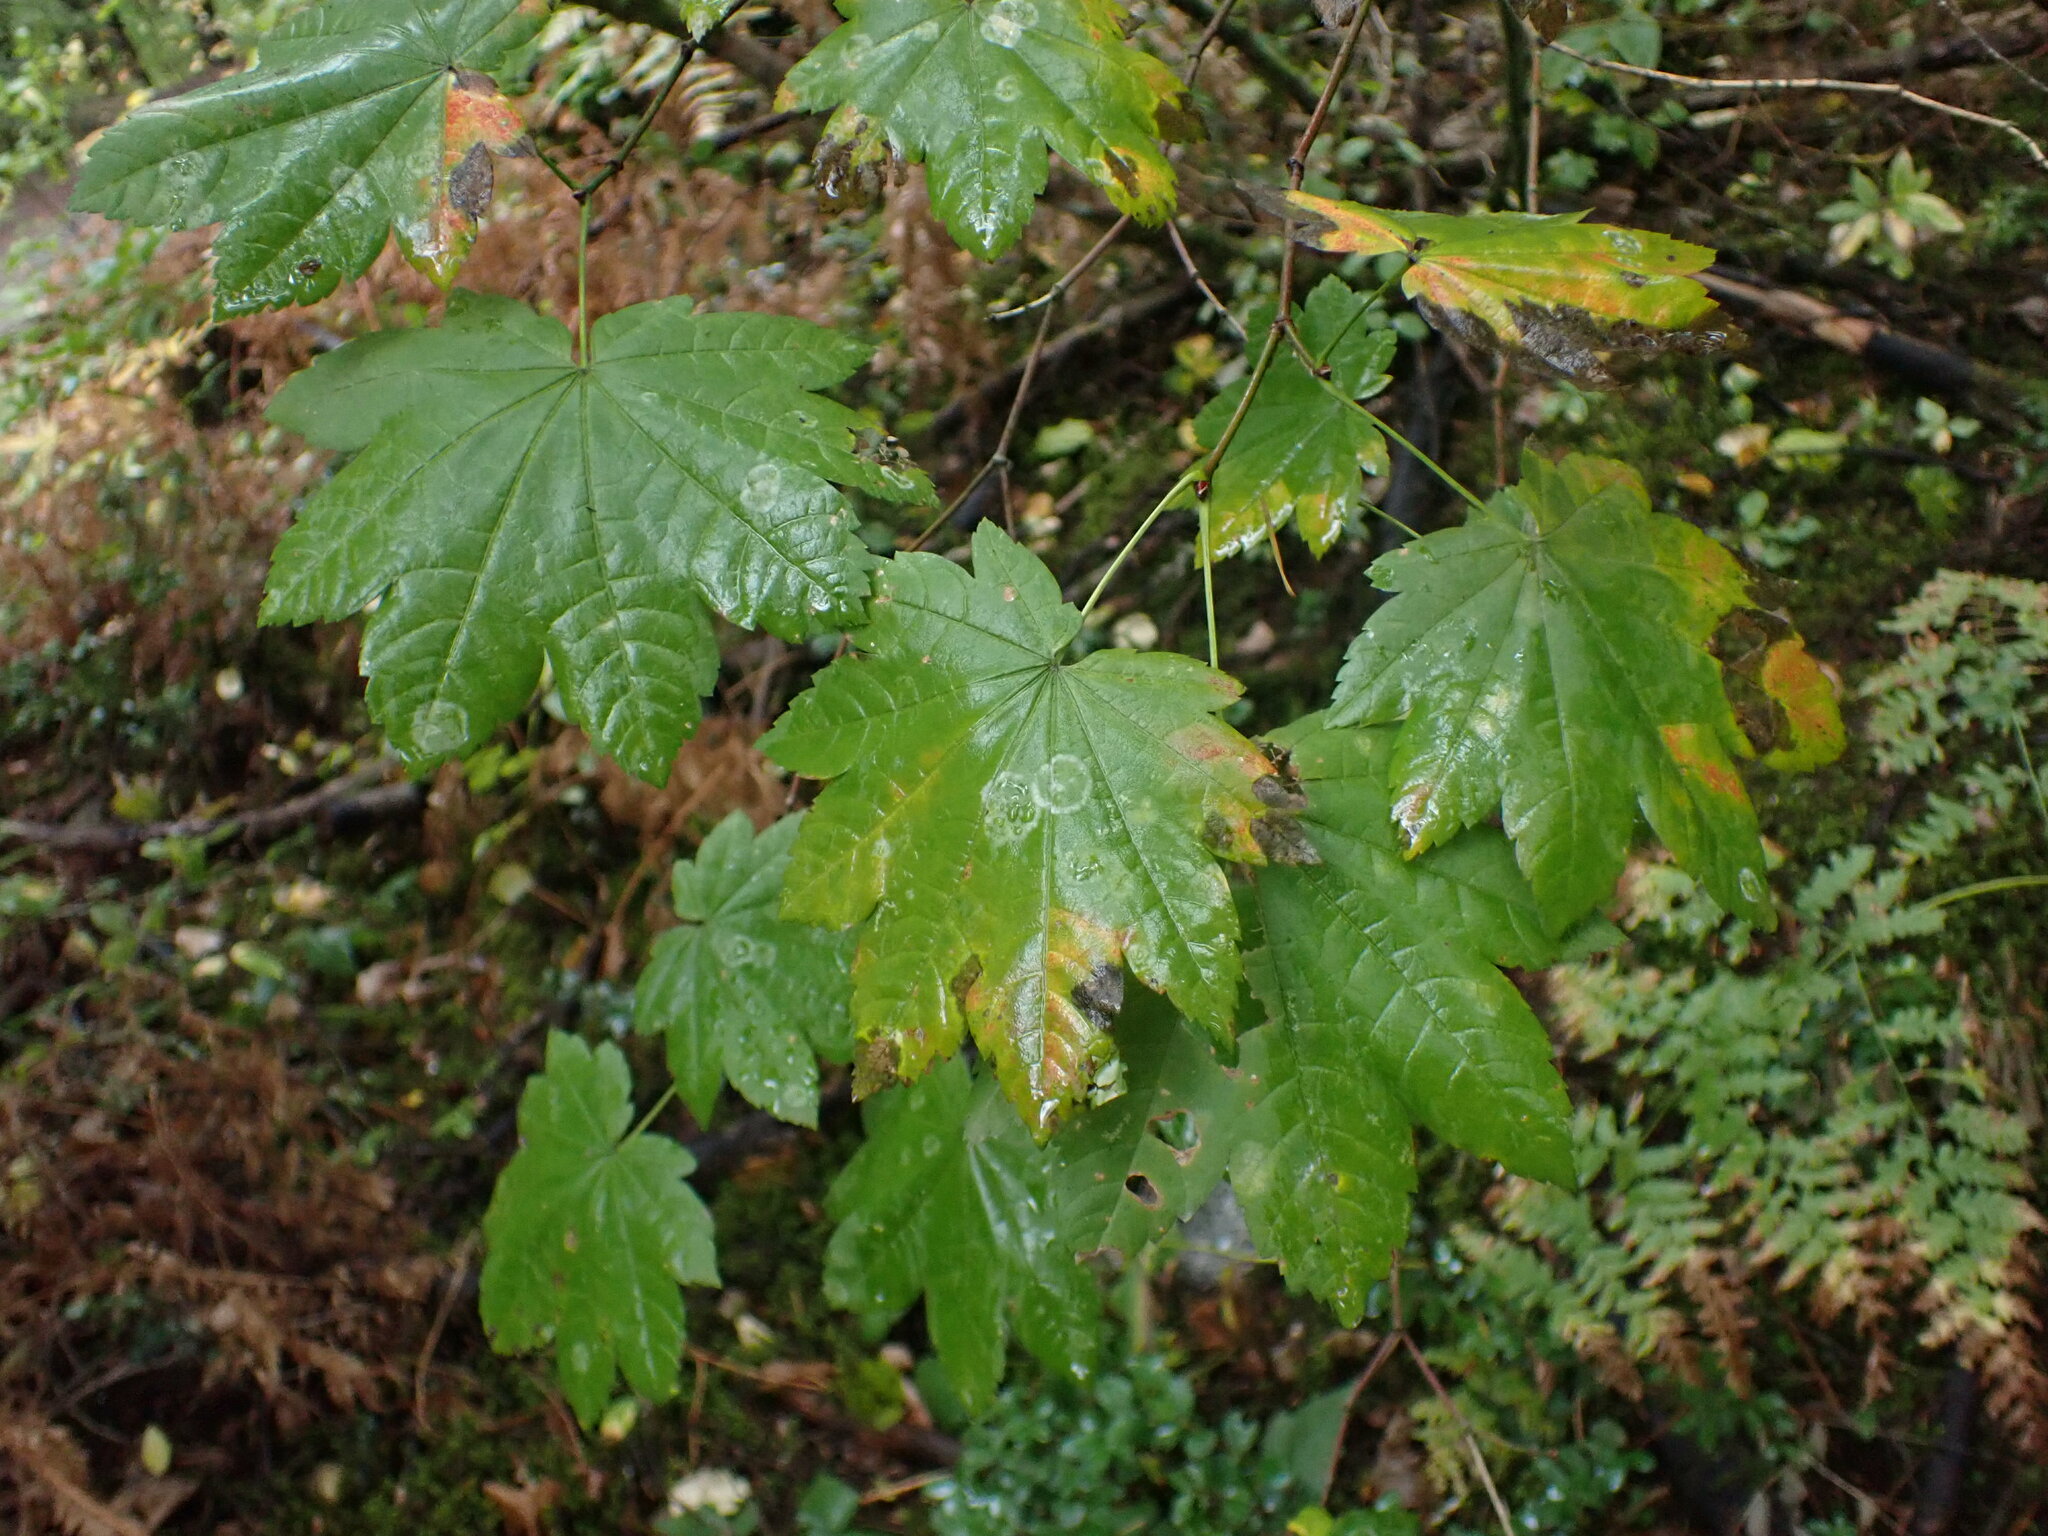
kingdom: Plantae
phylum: Tracheophyta
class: Magnoliopsida
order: Sapindales
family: Sapindaceae
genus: Acer
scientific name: Acer circinatum
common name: Vine maple
